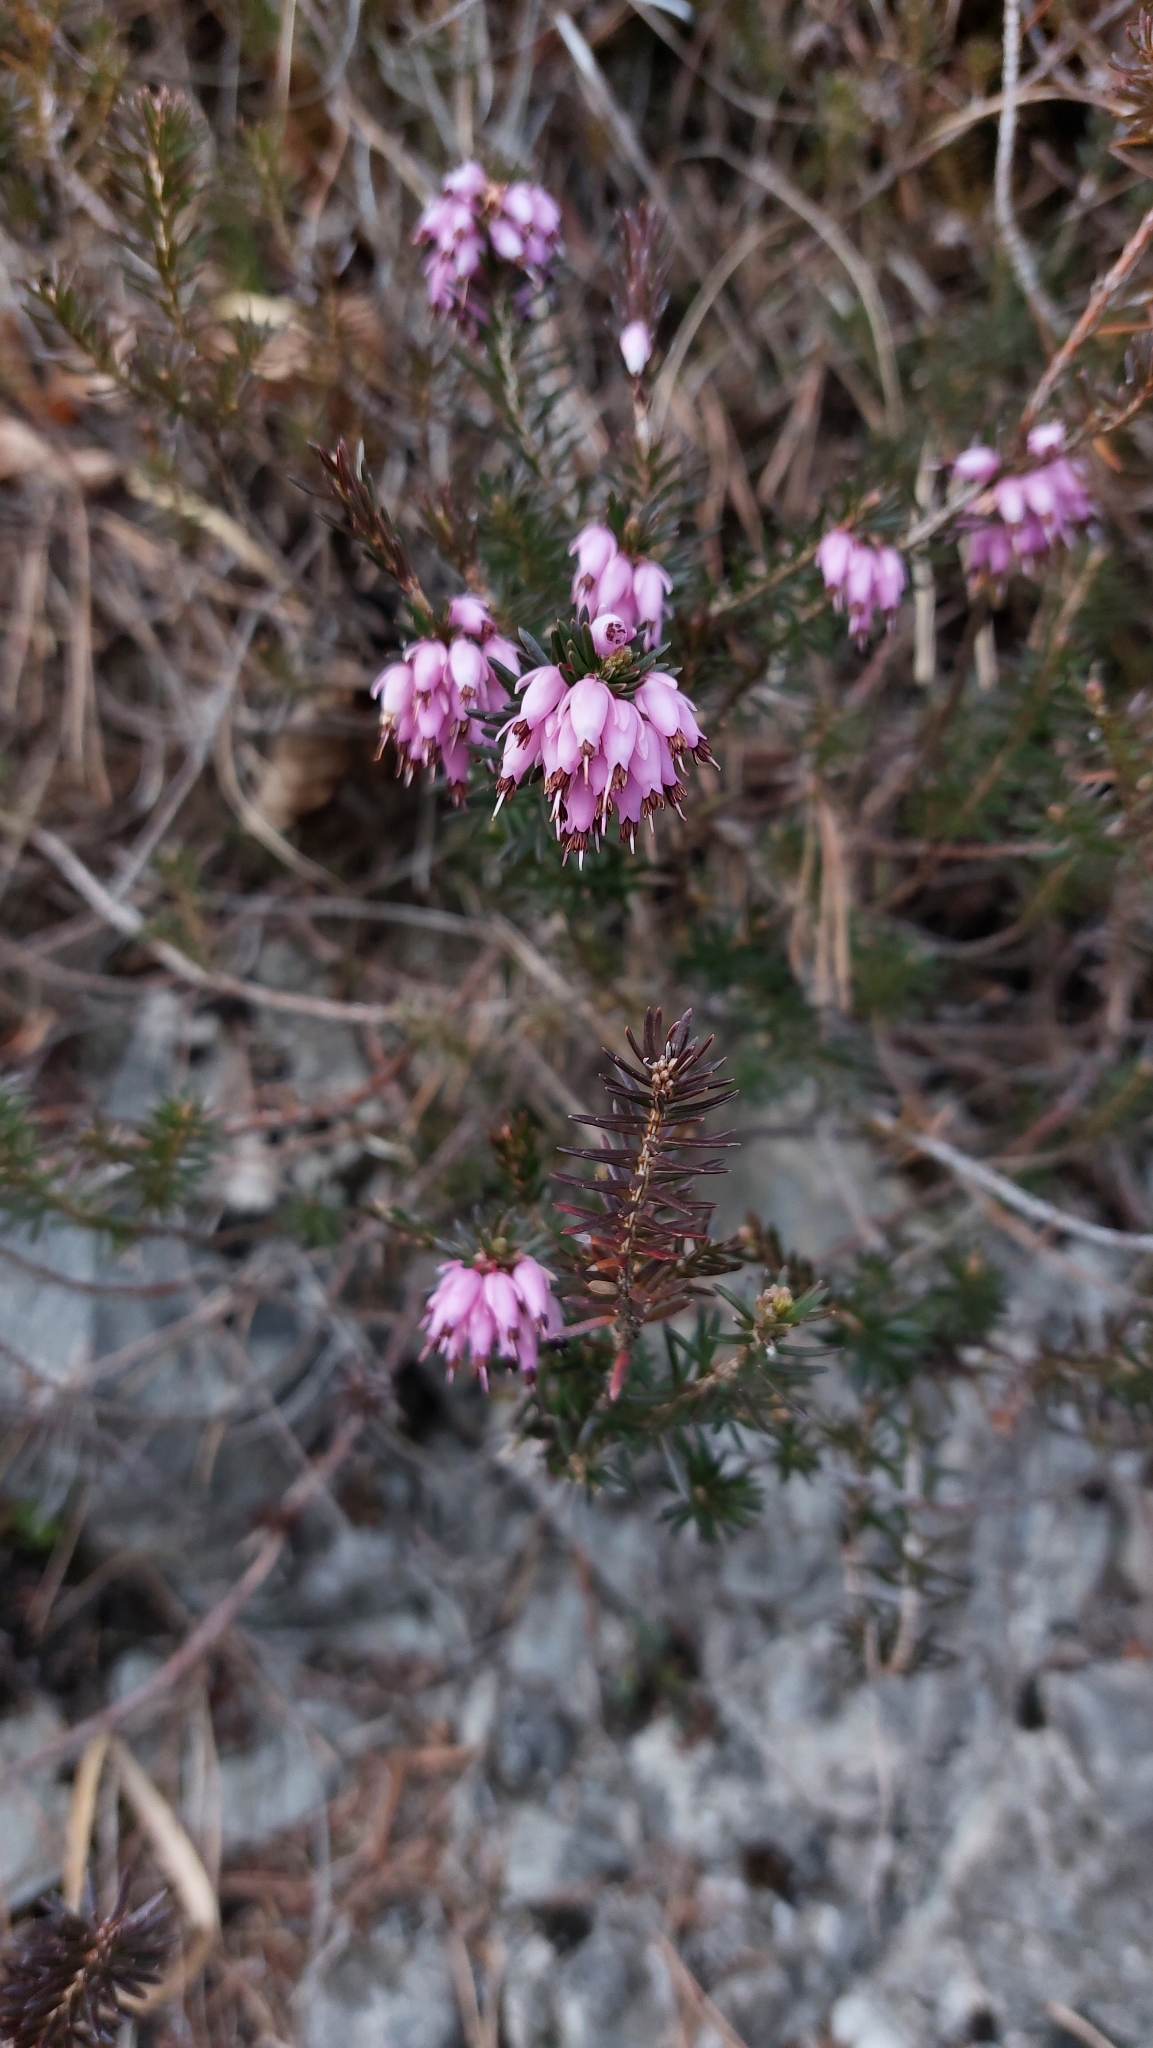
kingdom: Plantae
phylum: Tracheophyta
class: Magnoliopsida
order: Ericales
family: Ericaceae
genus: Erica
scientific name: Erica carnea
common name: Winter heath
